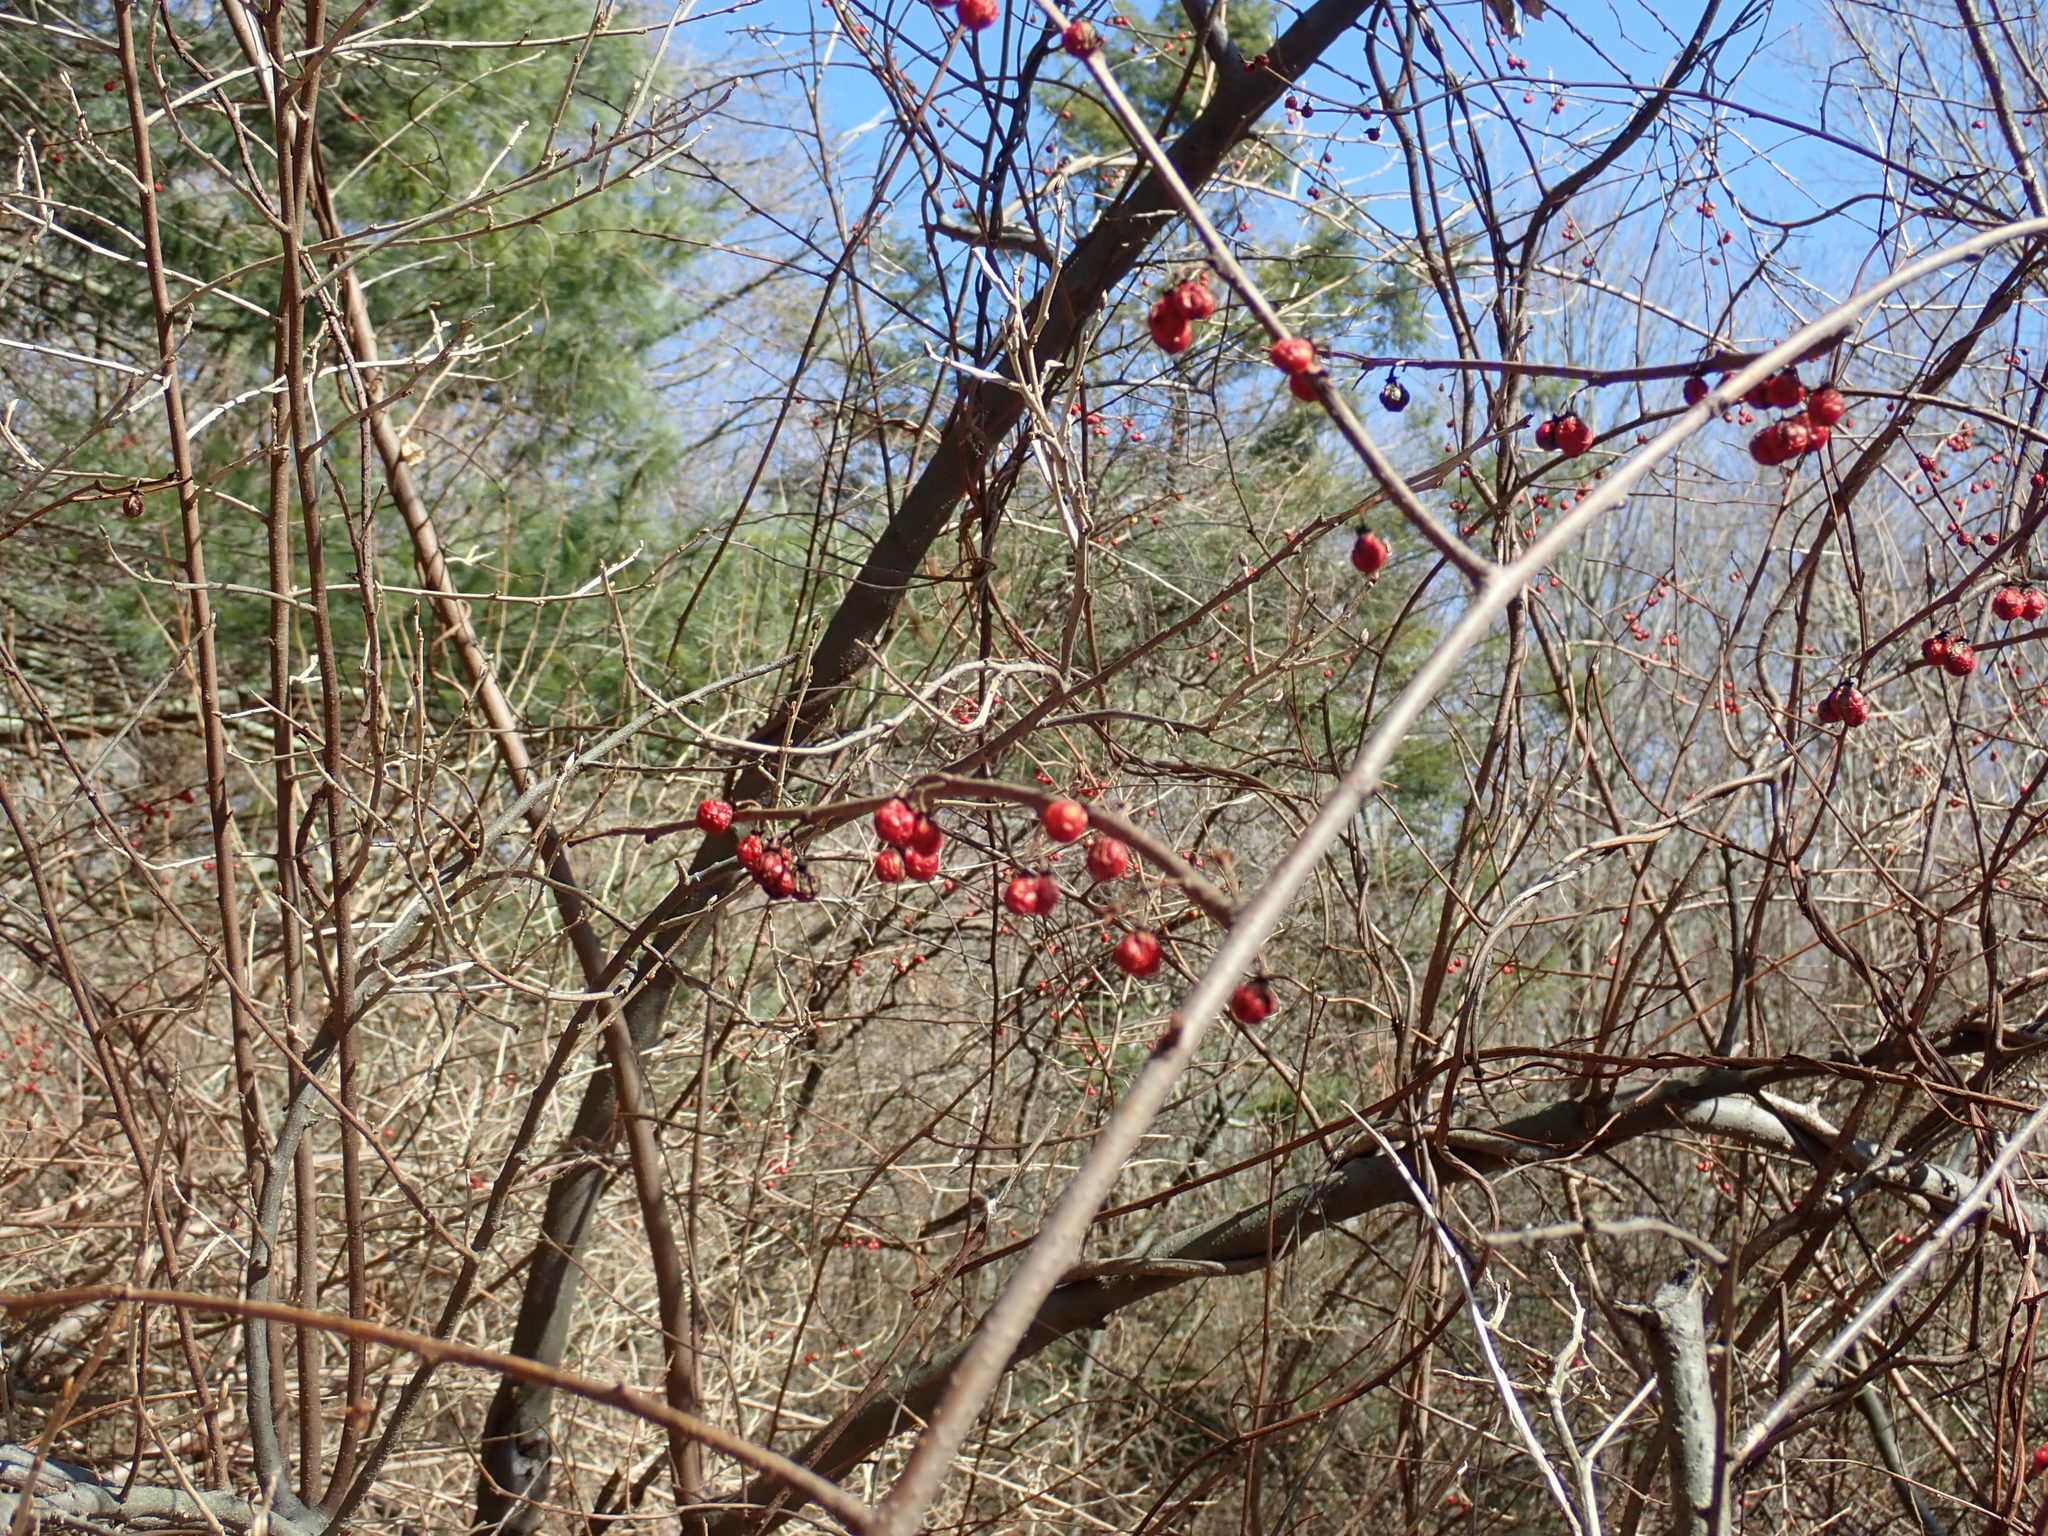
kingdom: Plantae
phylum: Tracheophyta
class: Magnoliopsida
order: Celastrales
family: Celastraceae
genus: Celastrus
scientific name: Celastrus orbiculatus
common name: Oriental bittersweet
